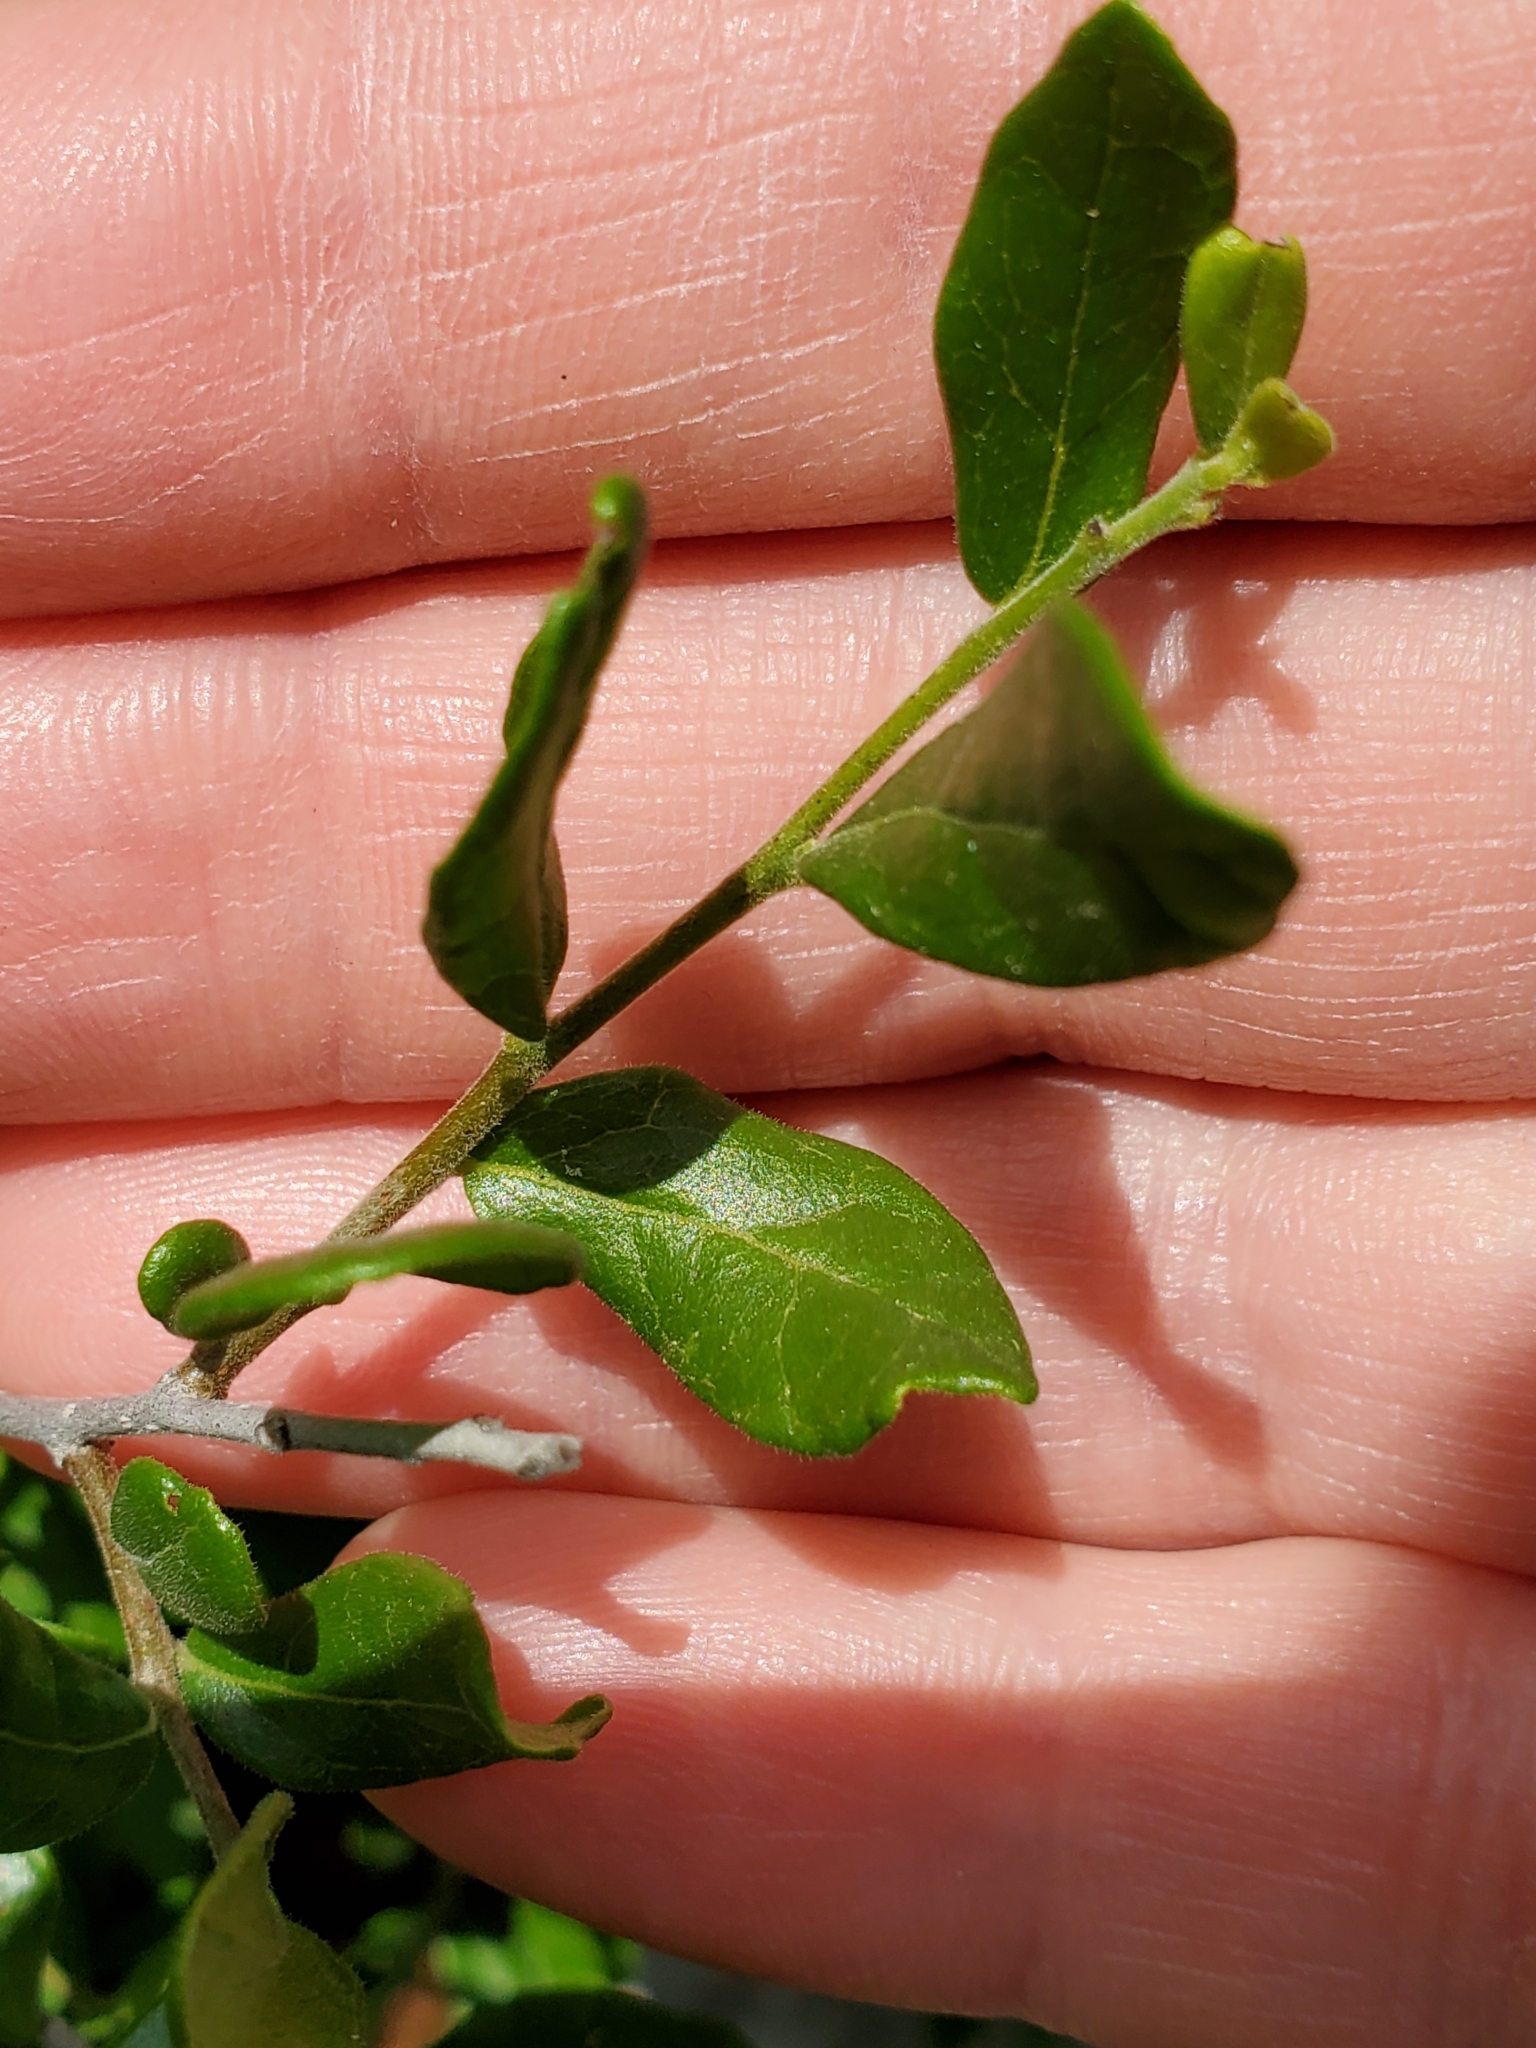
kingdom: Plantae
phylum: Tracheophyta
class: Magnoliopsida
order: Ericales
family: Ebenaceae
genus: Diospyros
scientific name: Diospyros texana
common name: Texas persimmon
